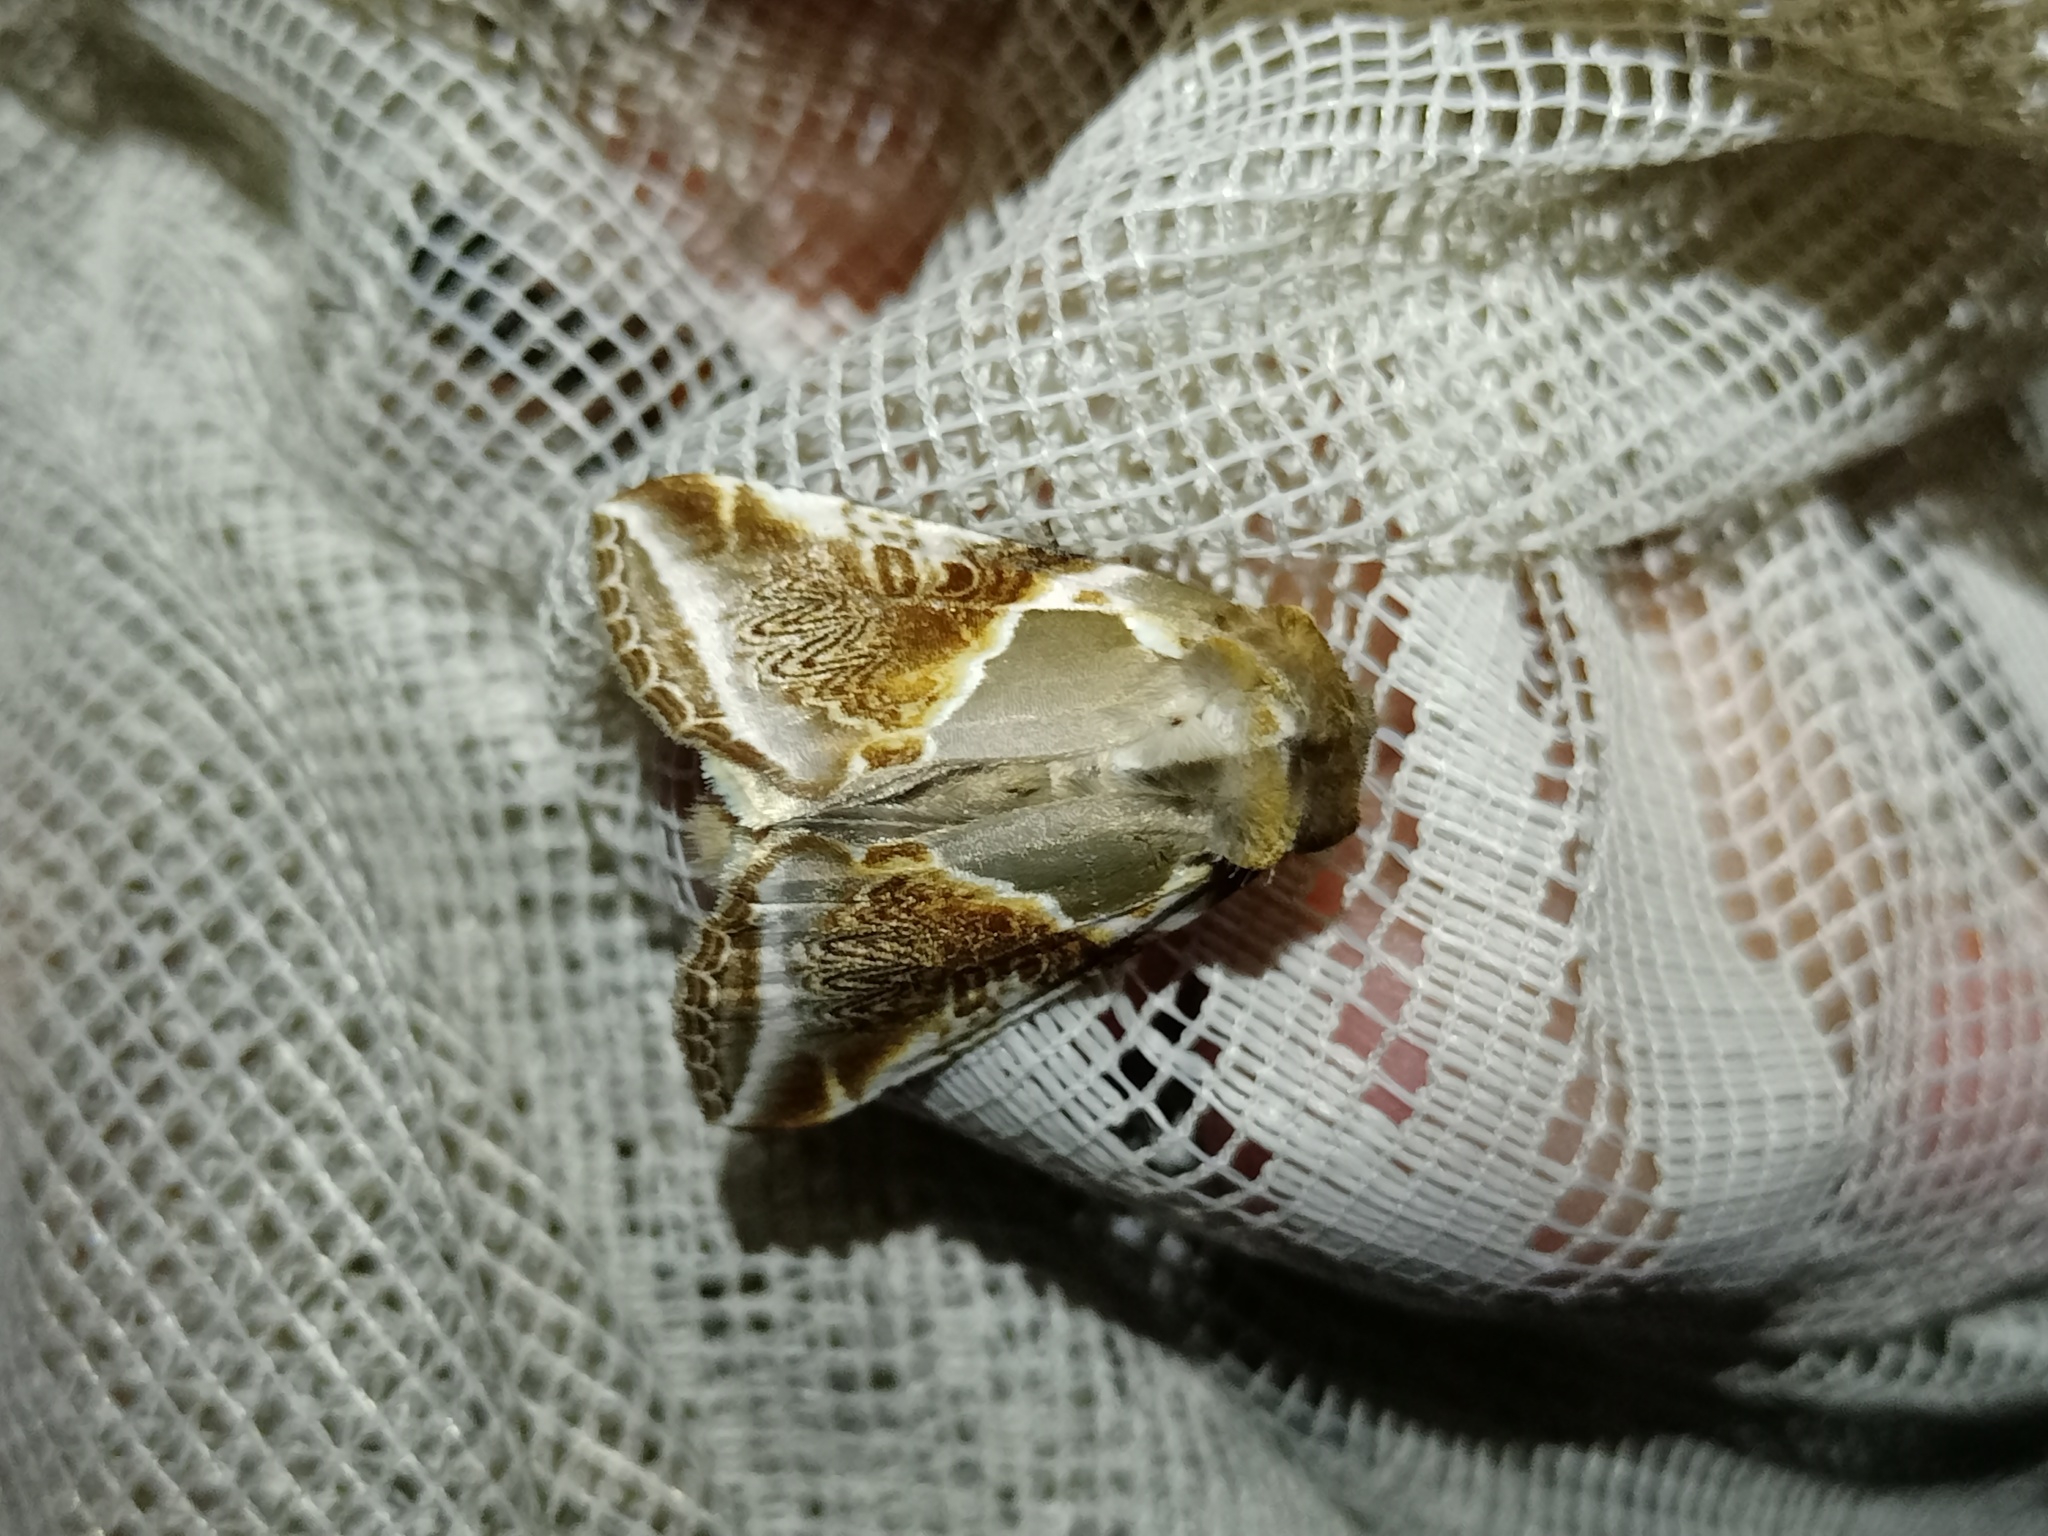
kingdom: Animalia
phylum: Arthropoda
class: Insecta
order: Lepidoptera
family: Drepanidae
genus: Habrosyne
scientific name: Habrosyne pyritoides
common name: Buff arches
